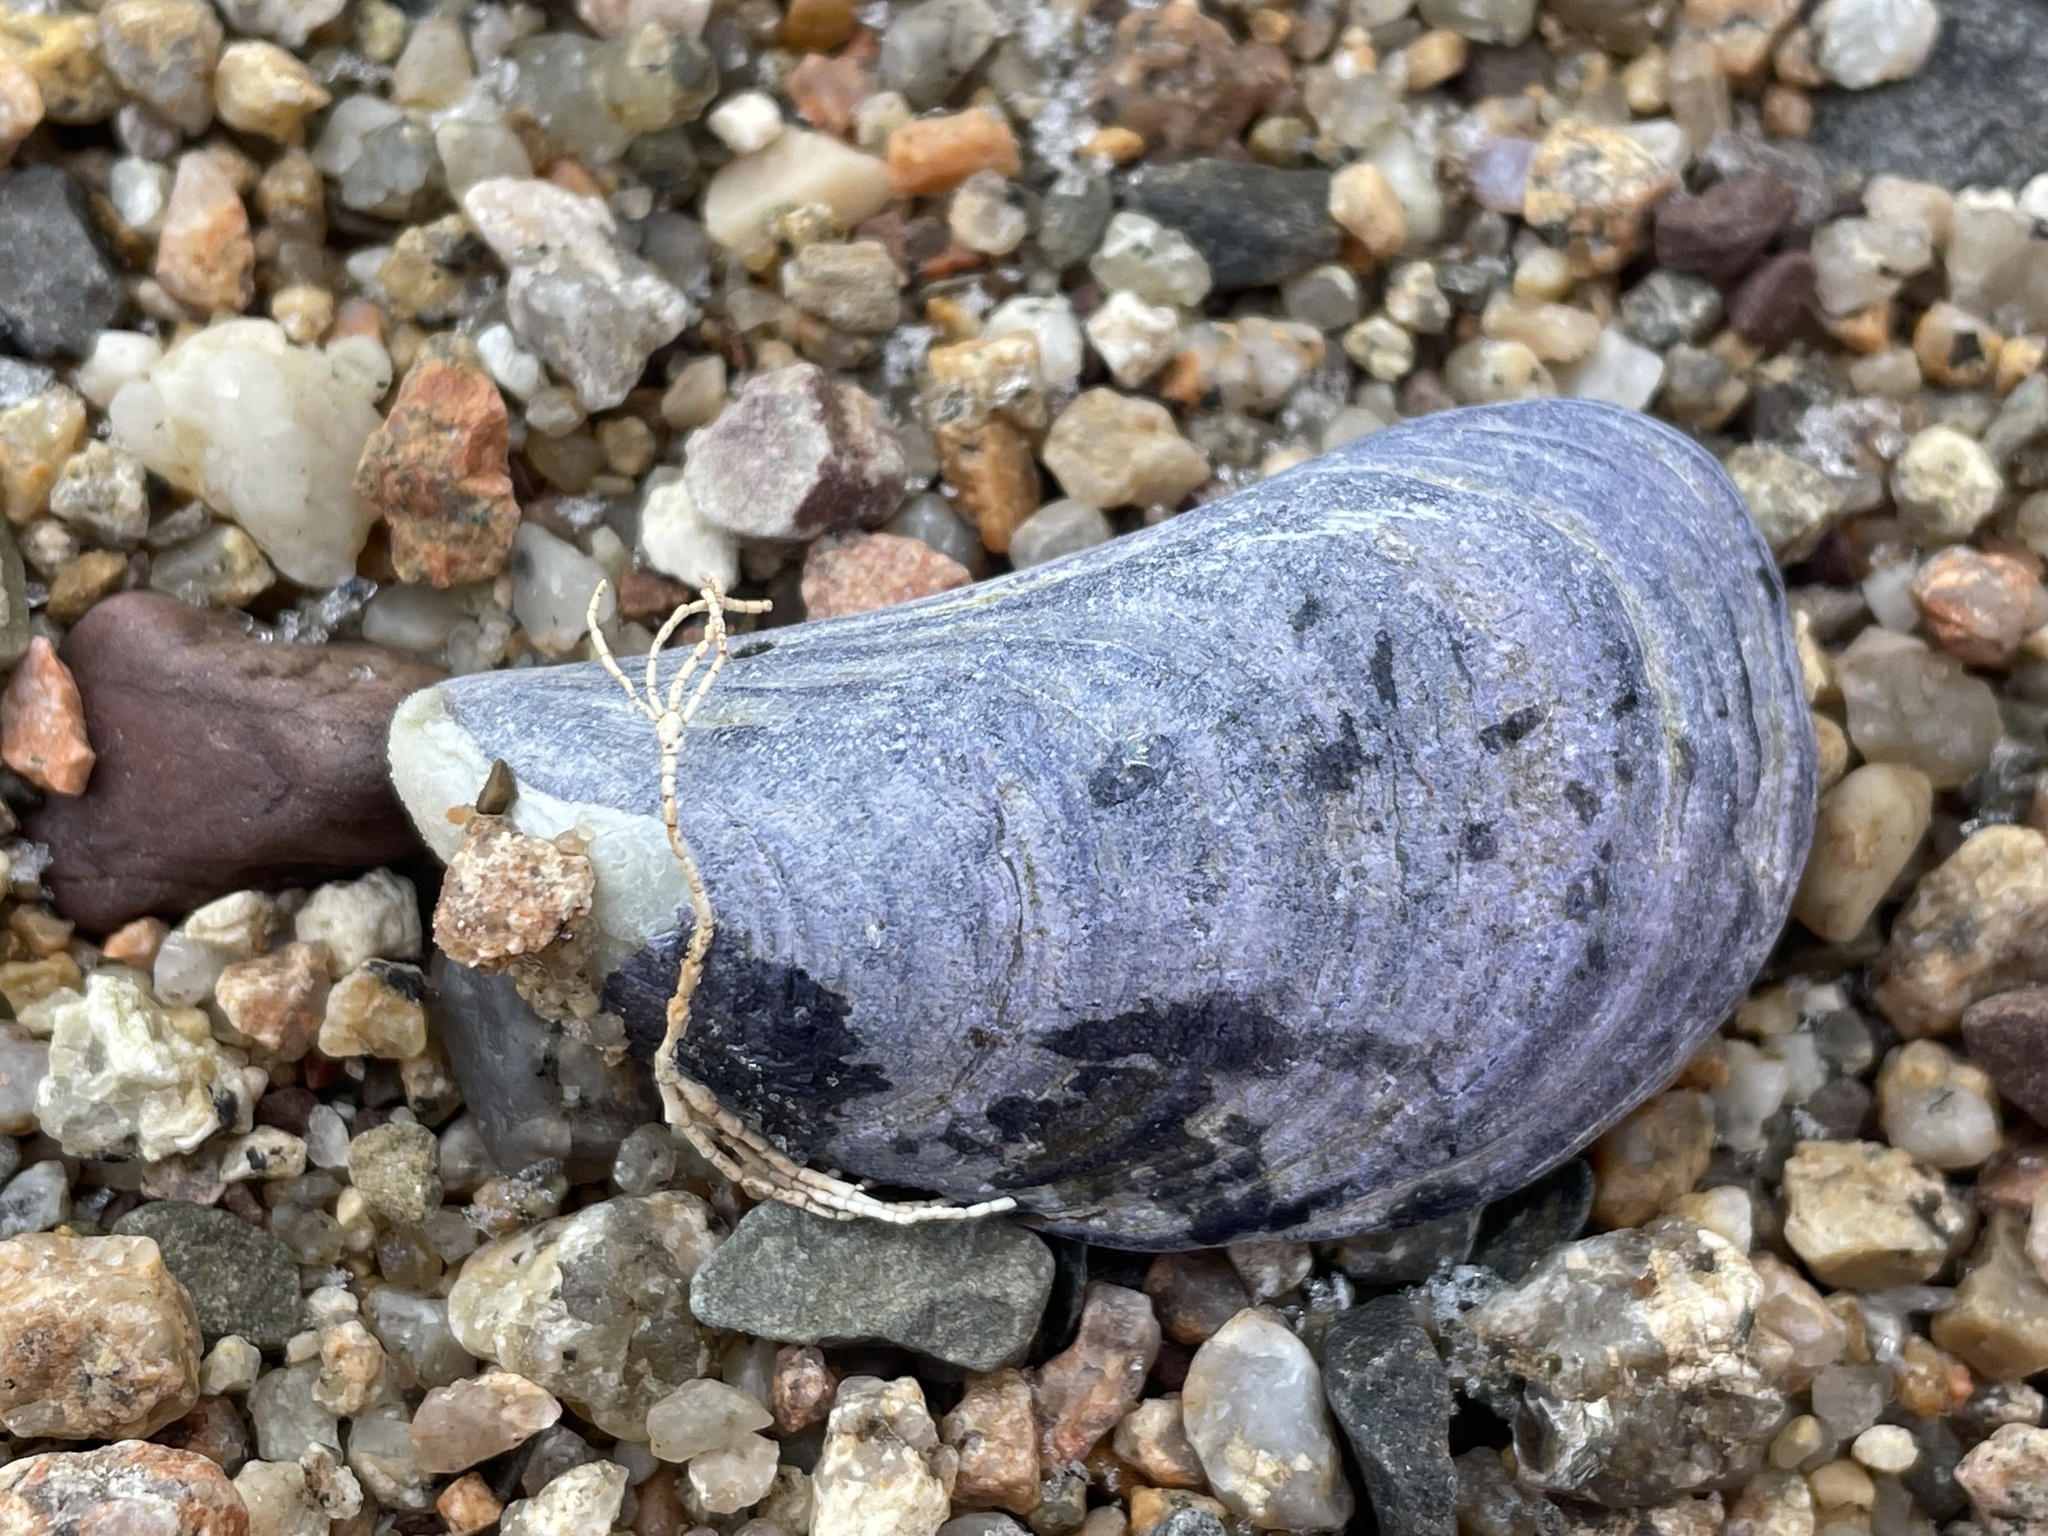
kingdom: Animalia
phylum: Mollusca
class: Bivalvia
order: Mytilida
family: Mytilidae
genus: Mytilus
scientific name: Mytilus
